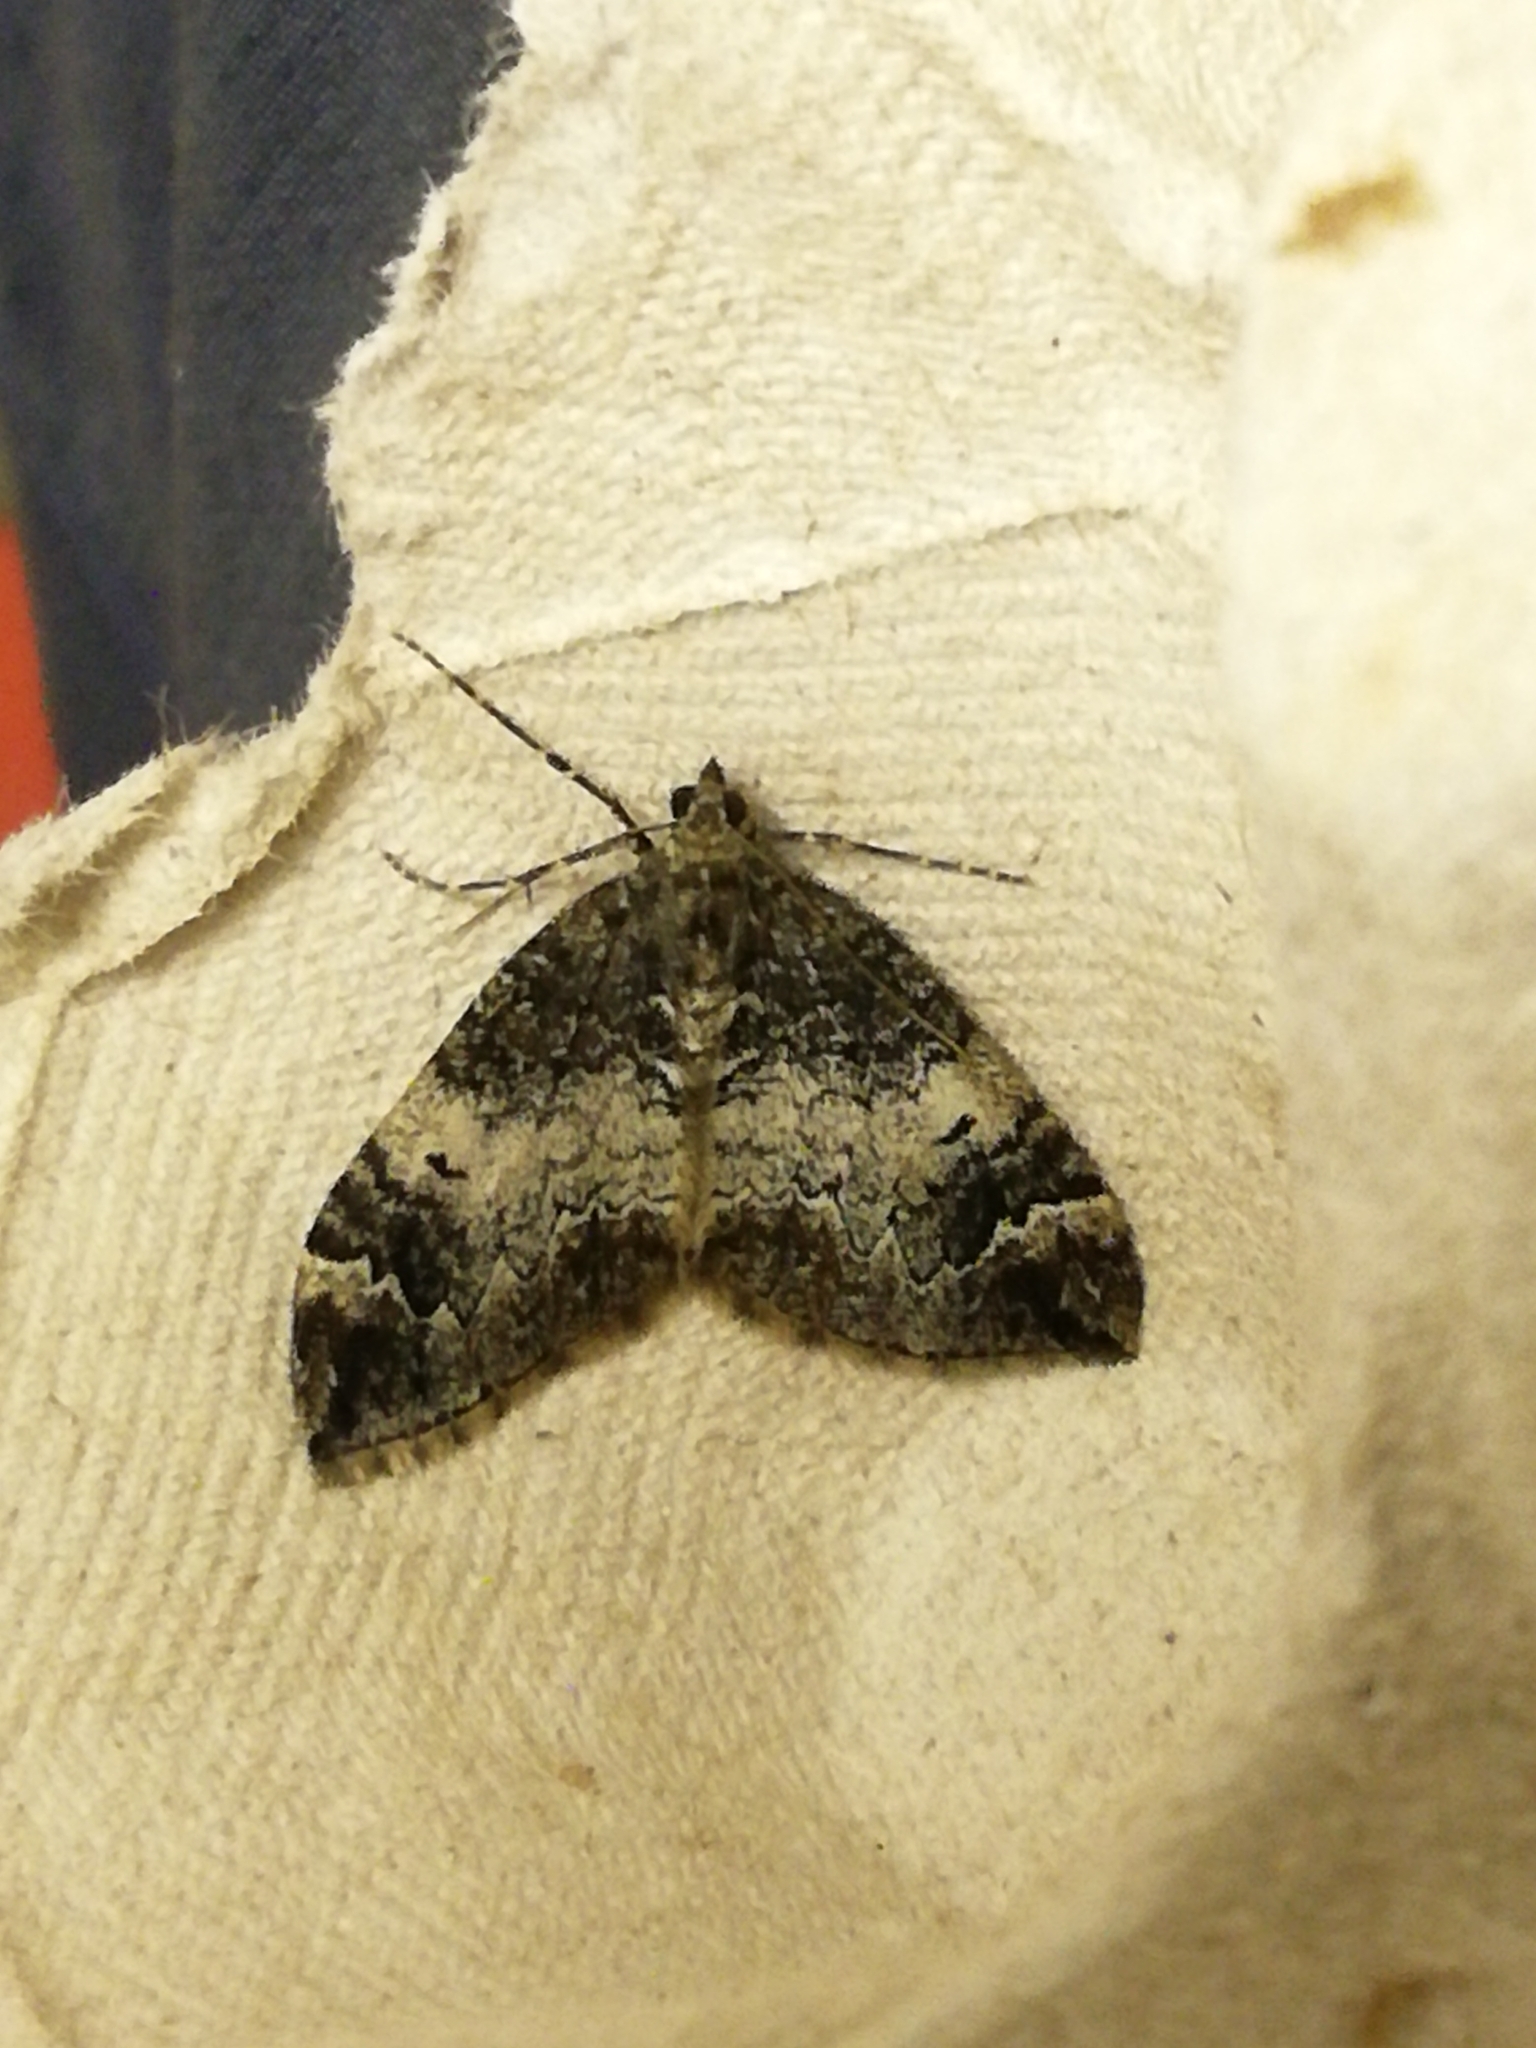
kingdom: Animalia
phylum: Arthropoda
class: Insecta
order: Lepidoptera
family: Geometridae
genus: Dysstroma
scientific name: Dysstroma citrata
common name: Dark marbled carpet
